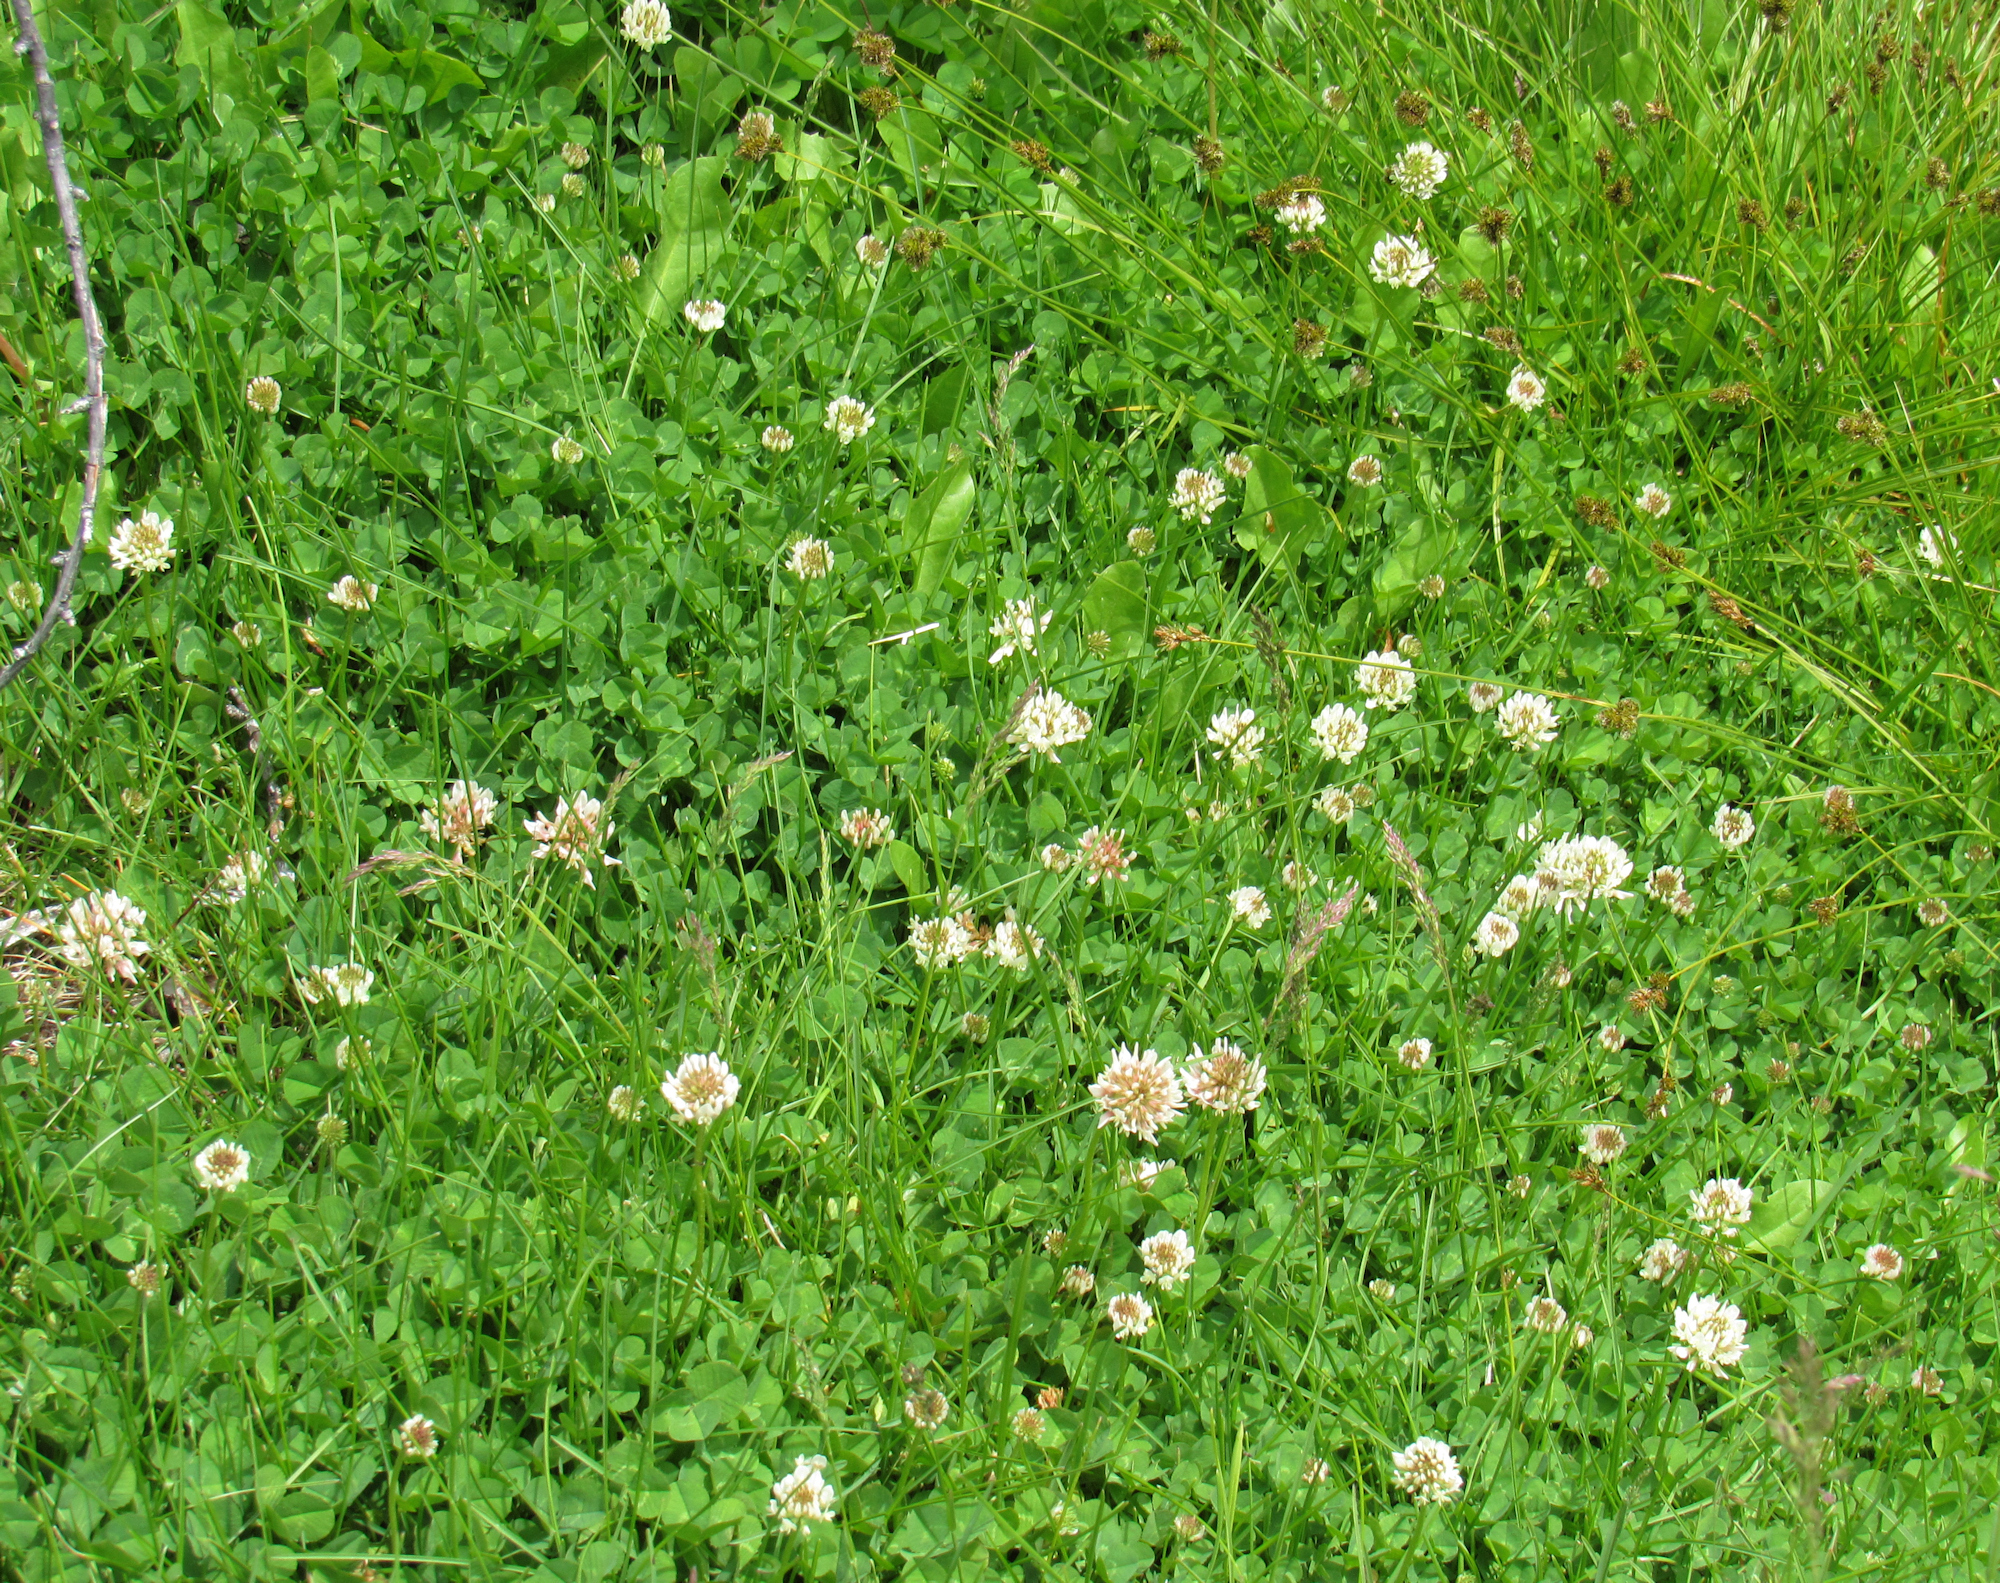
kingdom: Plantae
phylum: Tracheophyta
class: Magnoliopsida
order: Fabales
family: Fabaceae
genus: Trifolium
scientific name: Trifolium repens
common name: White clover
